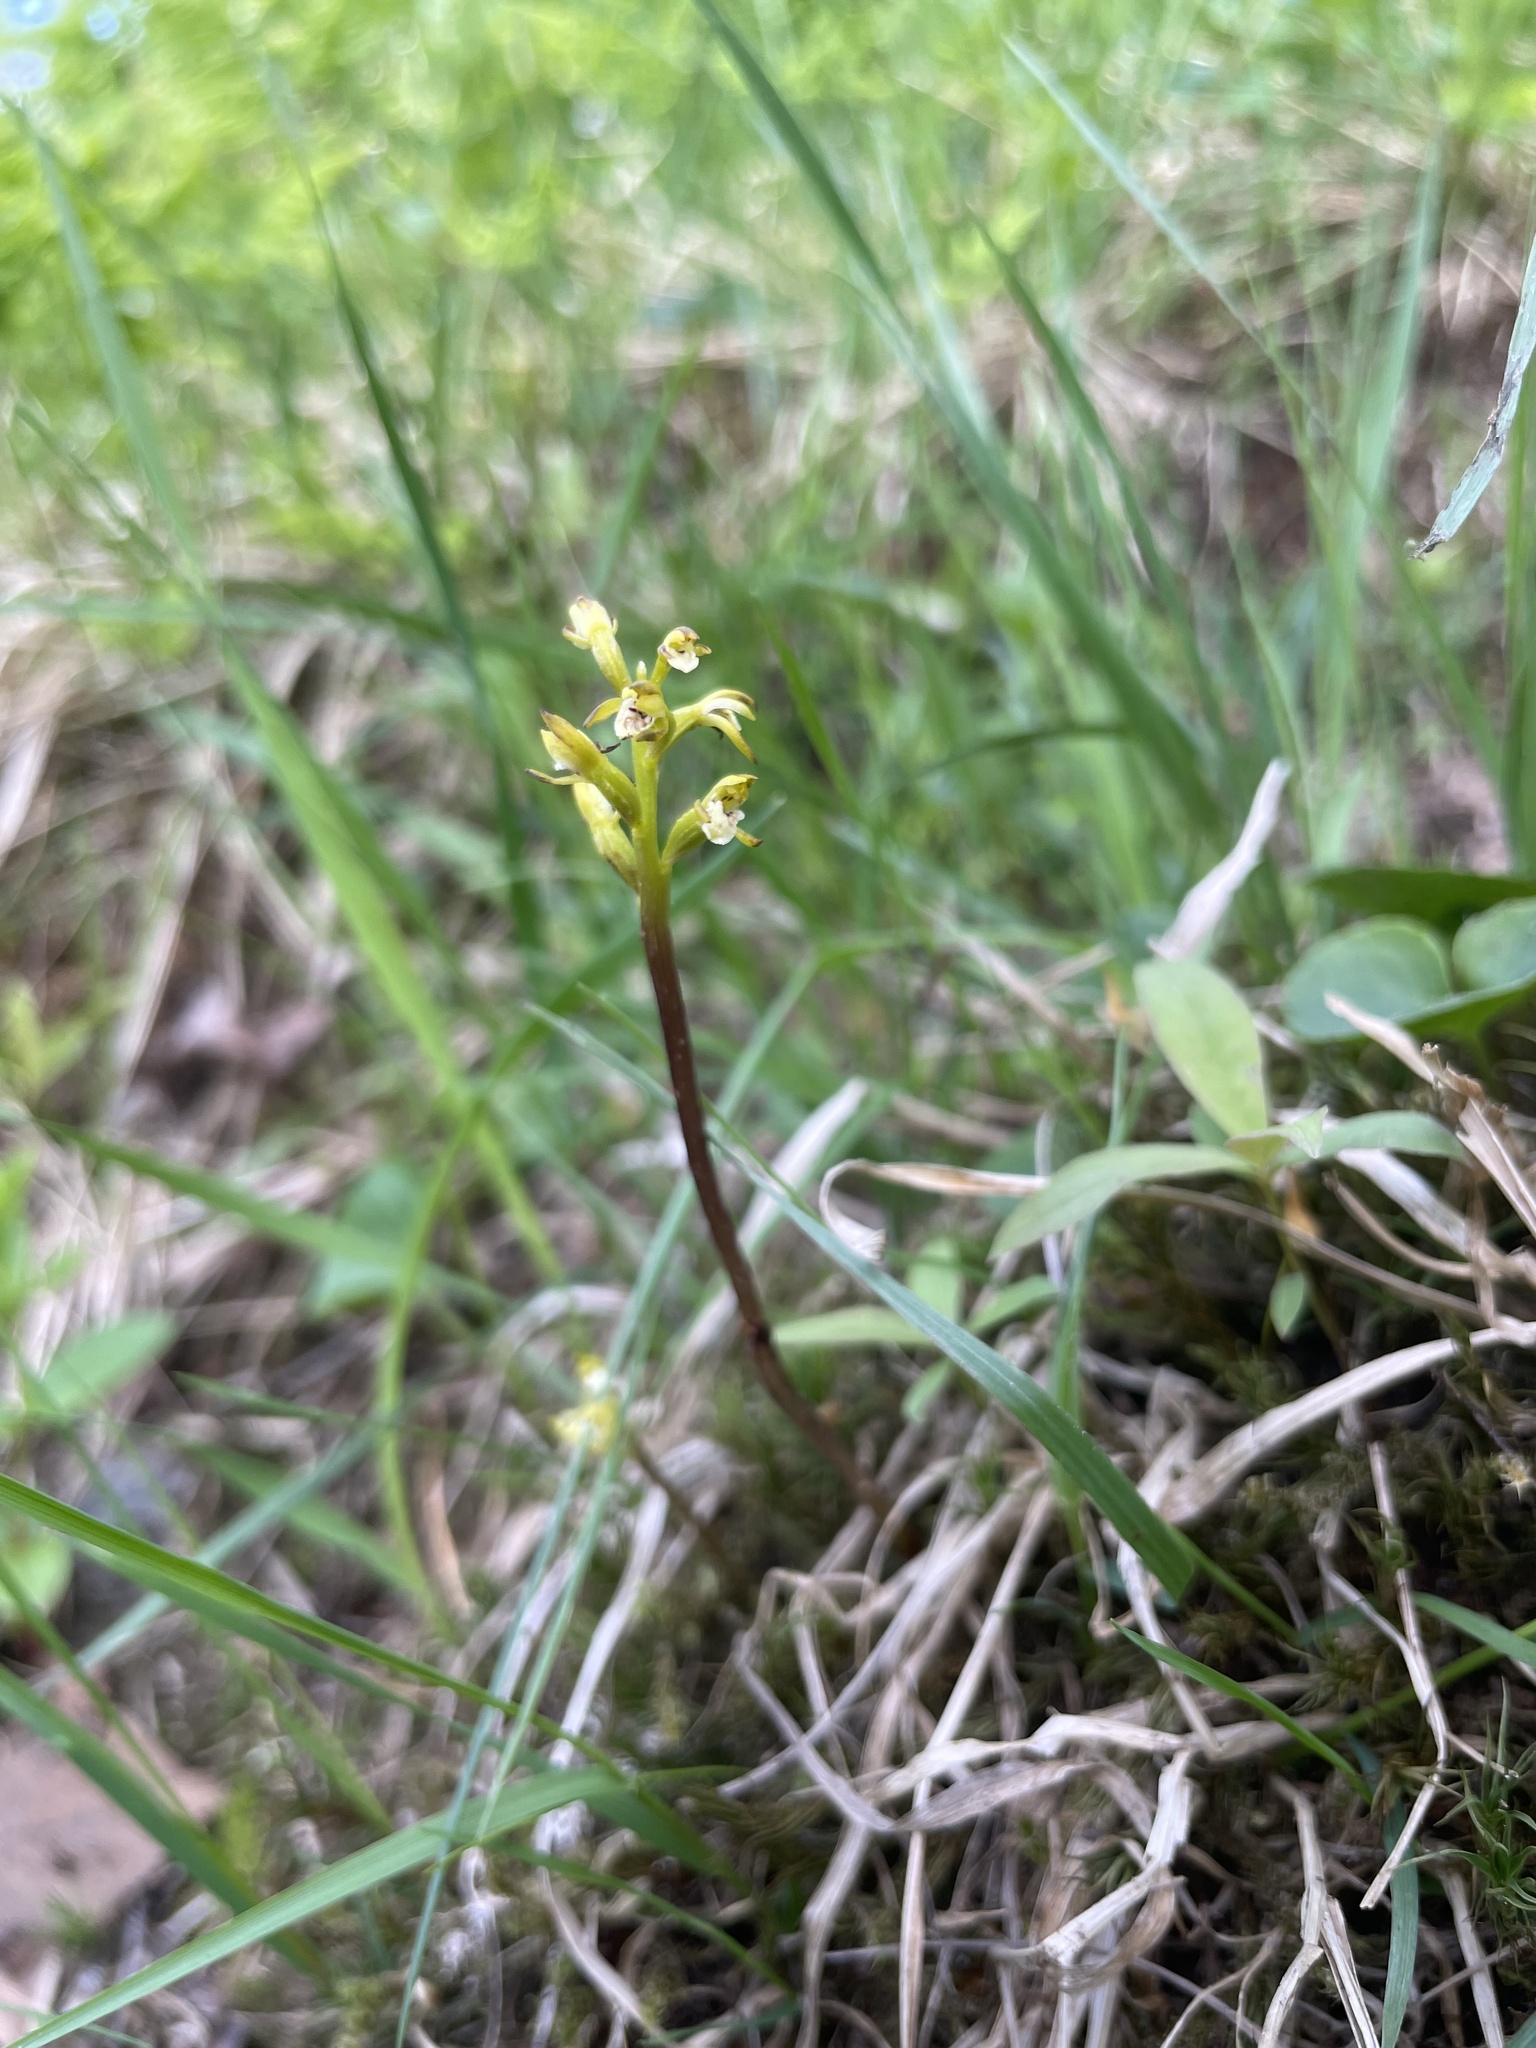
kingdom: Plantae
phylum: Tracheophyta
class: Liliopsida
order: Asparagales
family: Orchidaceae
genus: Corallorhiza
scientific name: Corallorhiza trifida
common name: Yellow coralroot
